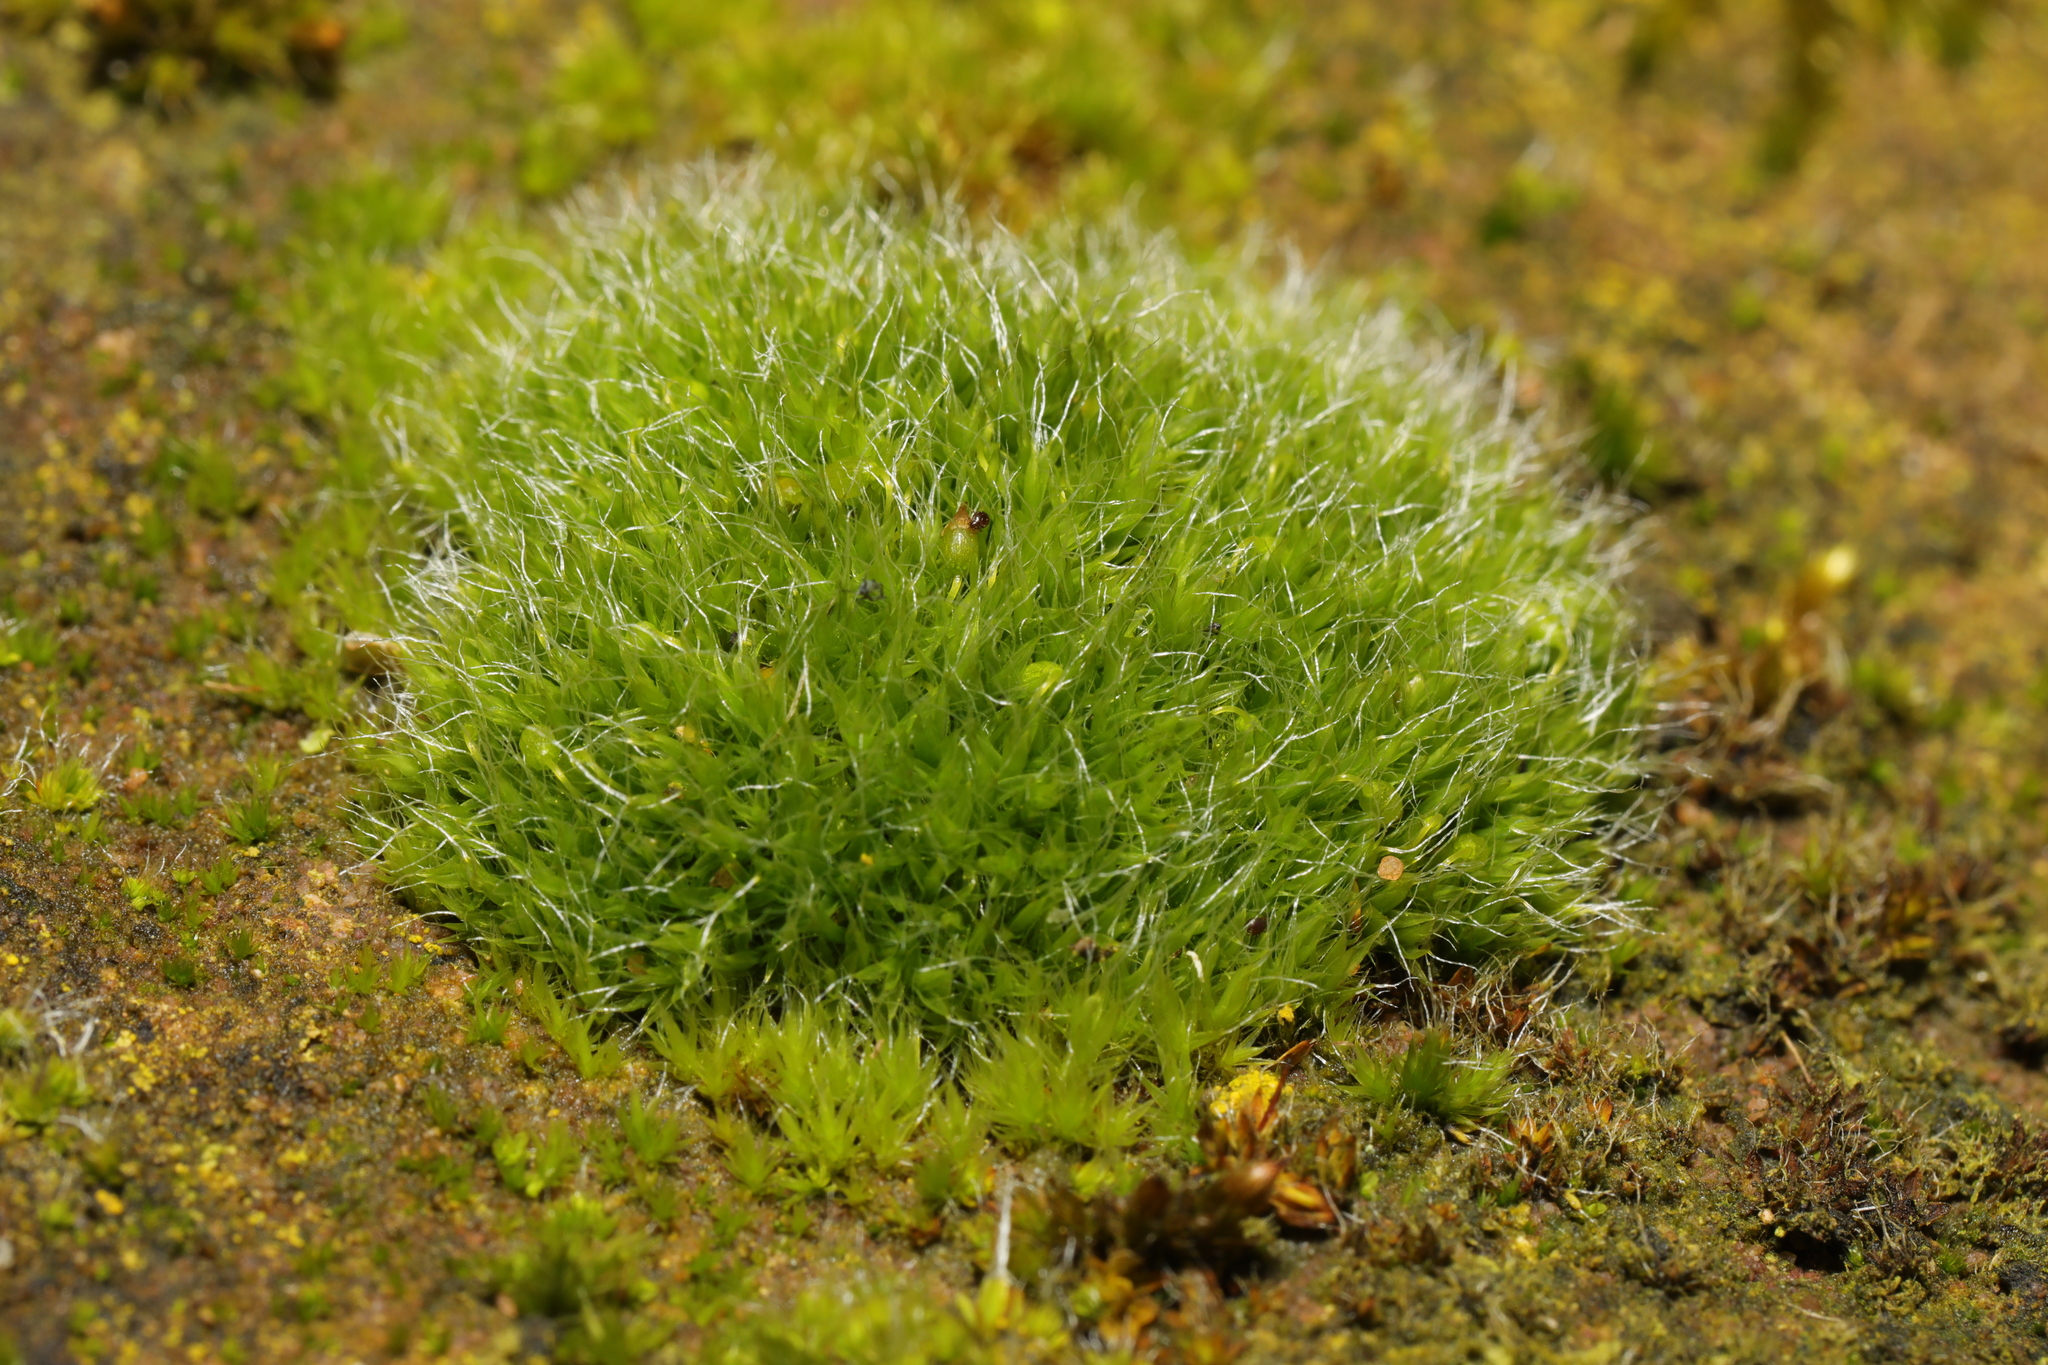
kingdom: Plantae
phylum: Bryophyta
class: Bryopsida
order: Grimmiales
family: Grimmiaceae
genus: Grimmia
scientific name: Grimmia pulvinata
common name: Grey-cushioned grimmia
